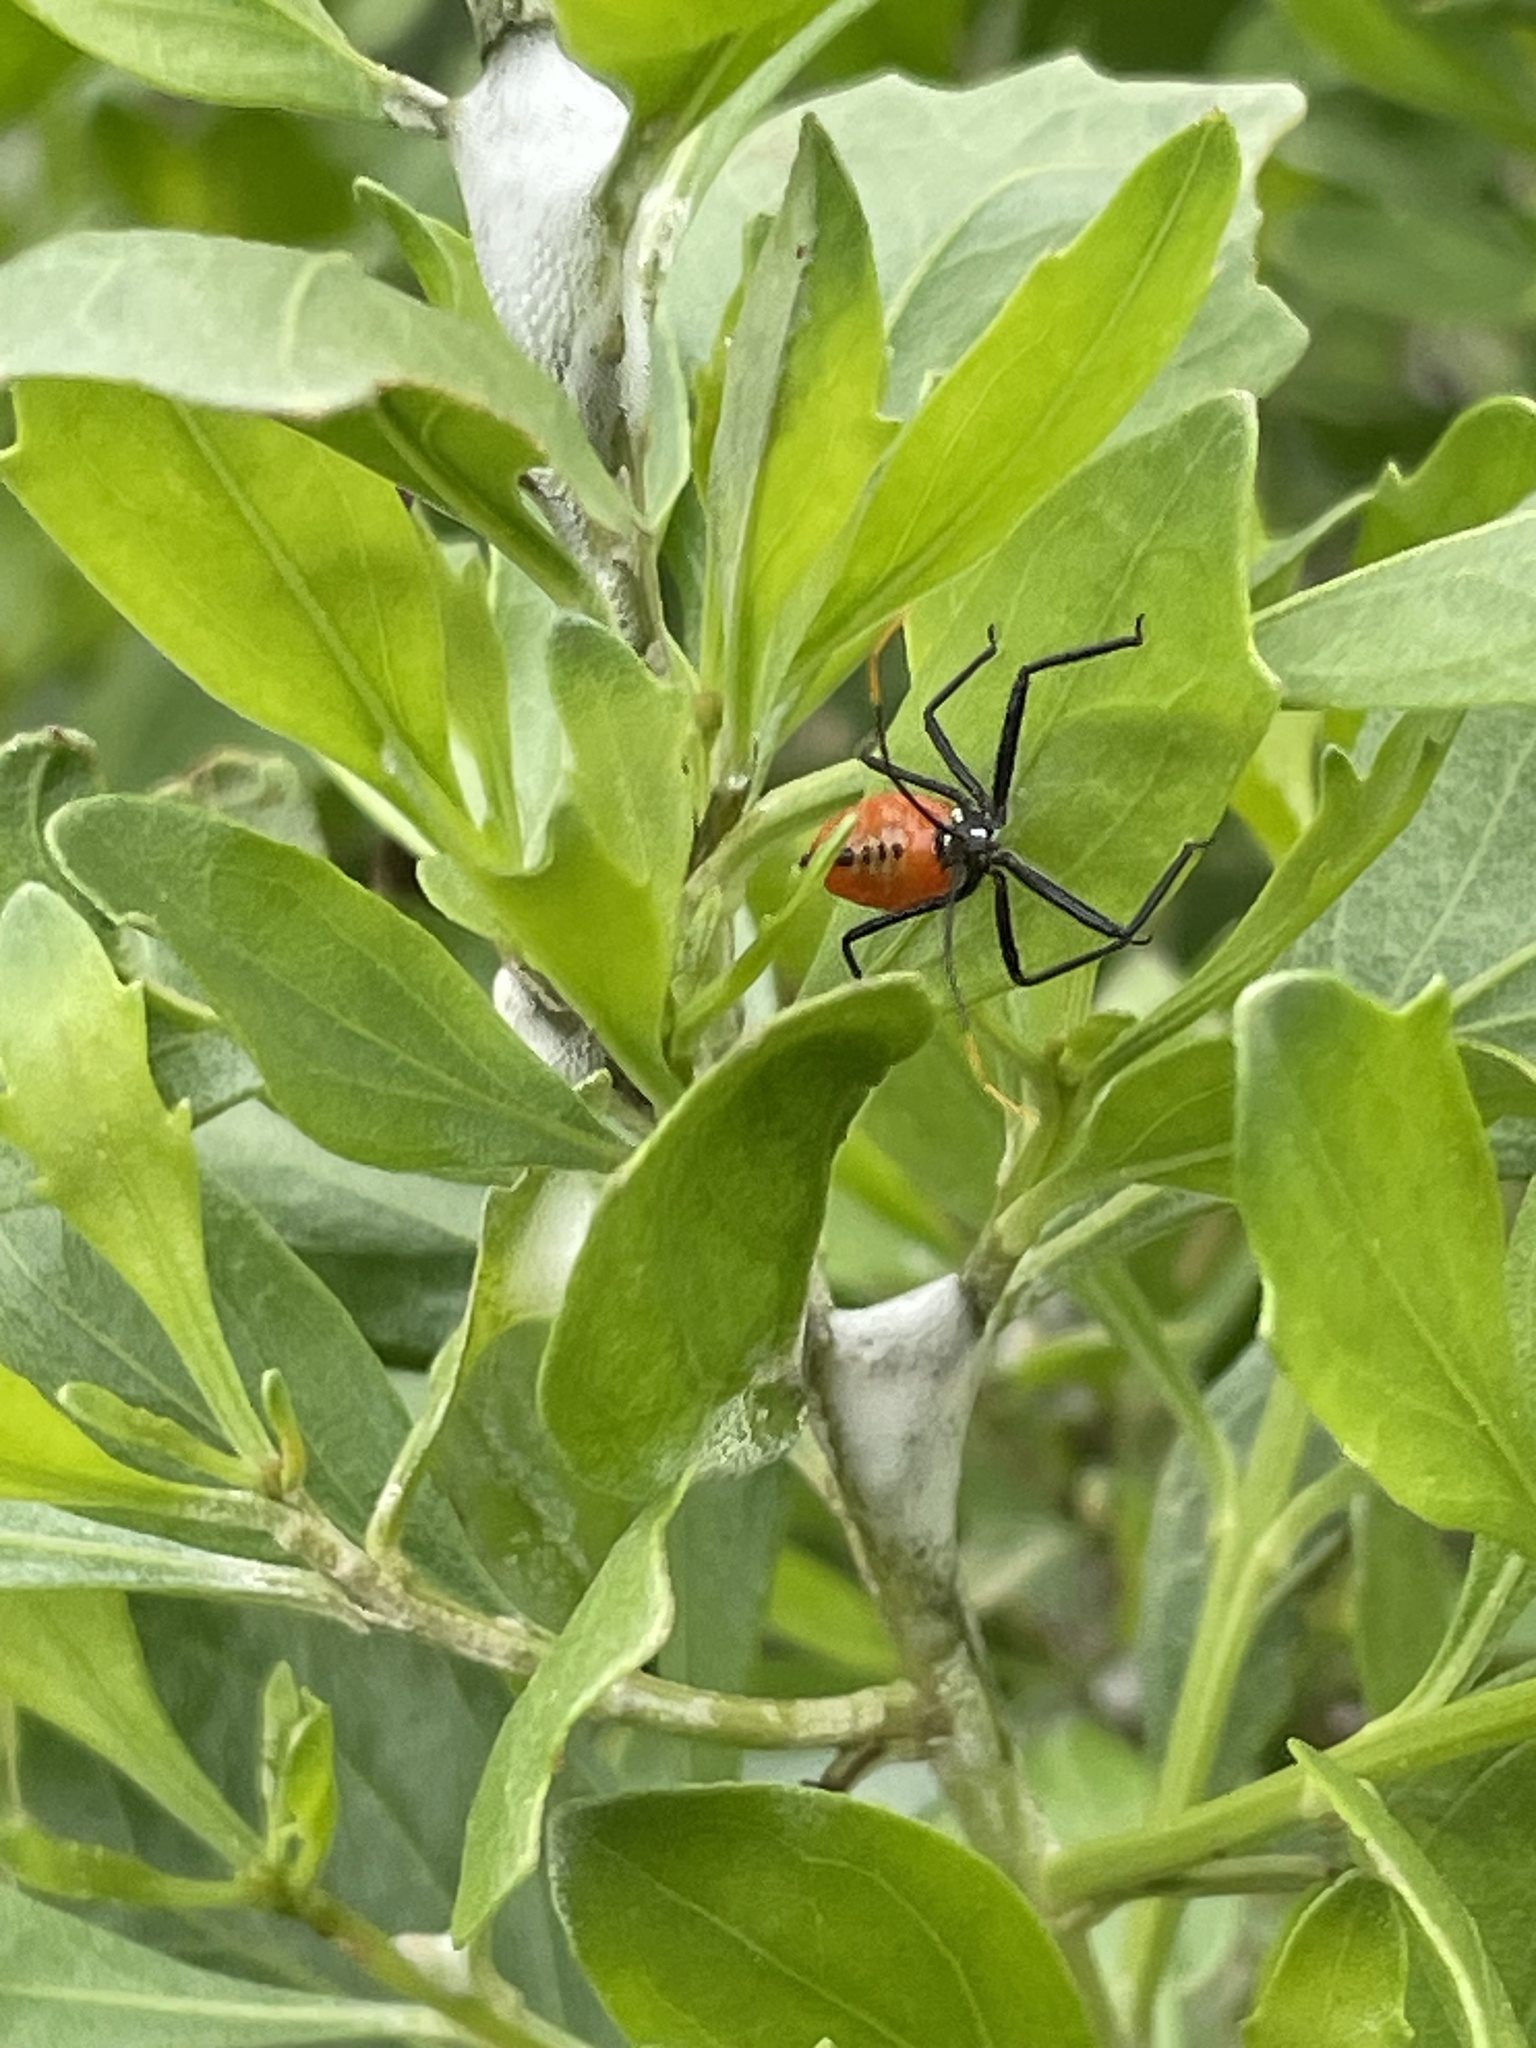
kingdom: Animalia
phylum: Arthropoda
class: Insecta
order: Hemiptera
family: Reduviidae
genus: Arilus
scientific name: Arilus cristatus
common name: North american wheel bug
